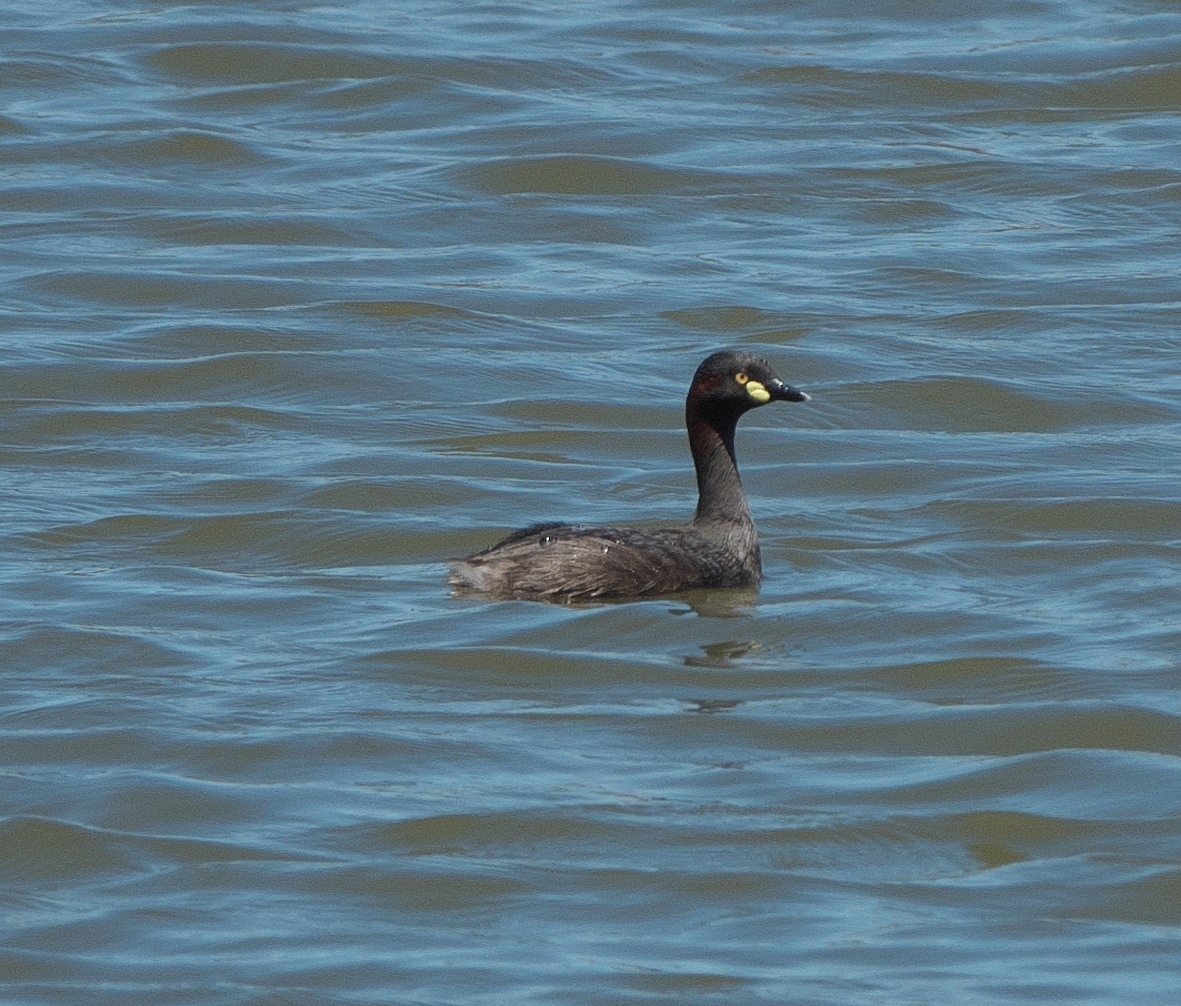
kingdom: Animalia
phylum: Chordata
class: Aves
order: Podicipediformes
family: Podicipedidae
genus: Tachybaptus
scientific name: Tachybaptus novaehollandiae
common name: Australasian grebe
